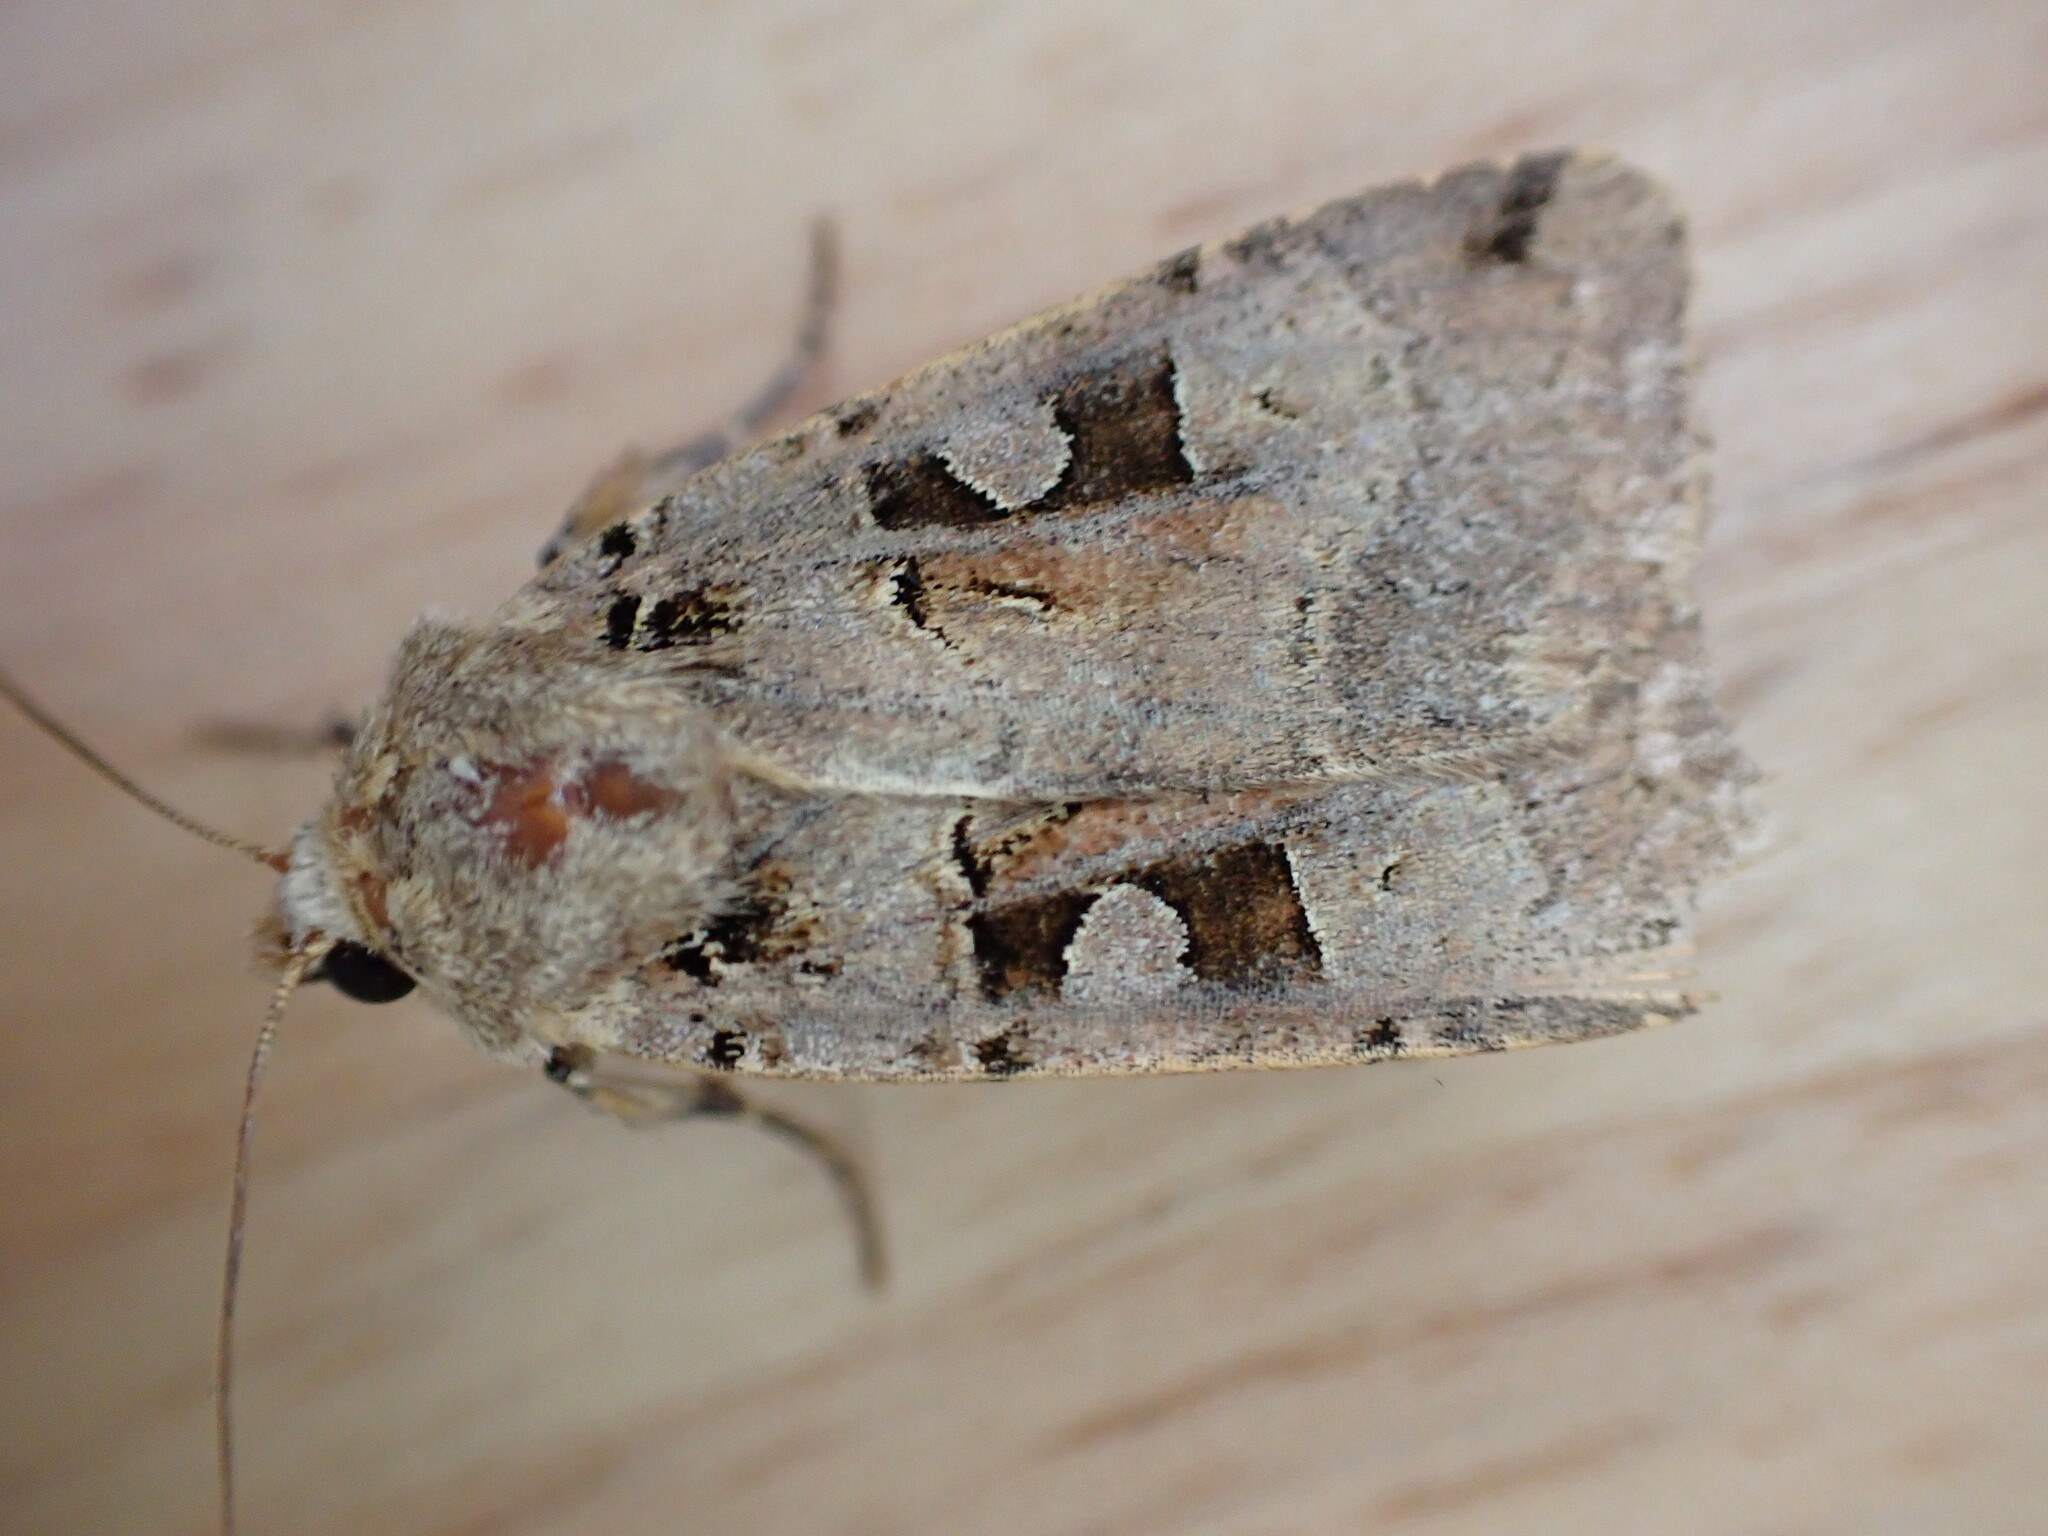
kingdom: Animalia
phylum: Arthropoda
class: Insecta
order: Lepidoptera
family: Noctuidae
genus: Xestia
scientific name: Xestia triangulum
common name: Double square-spot
